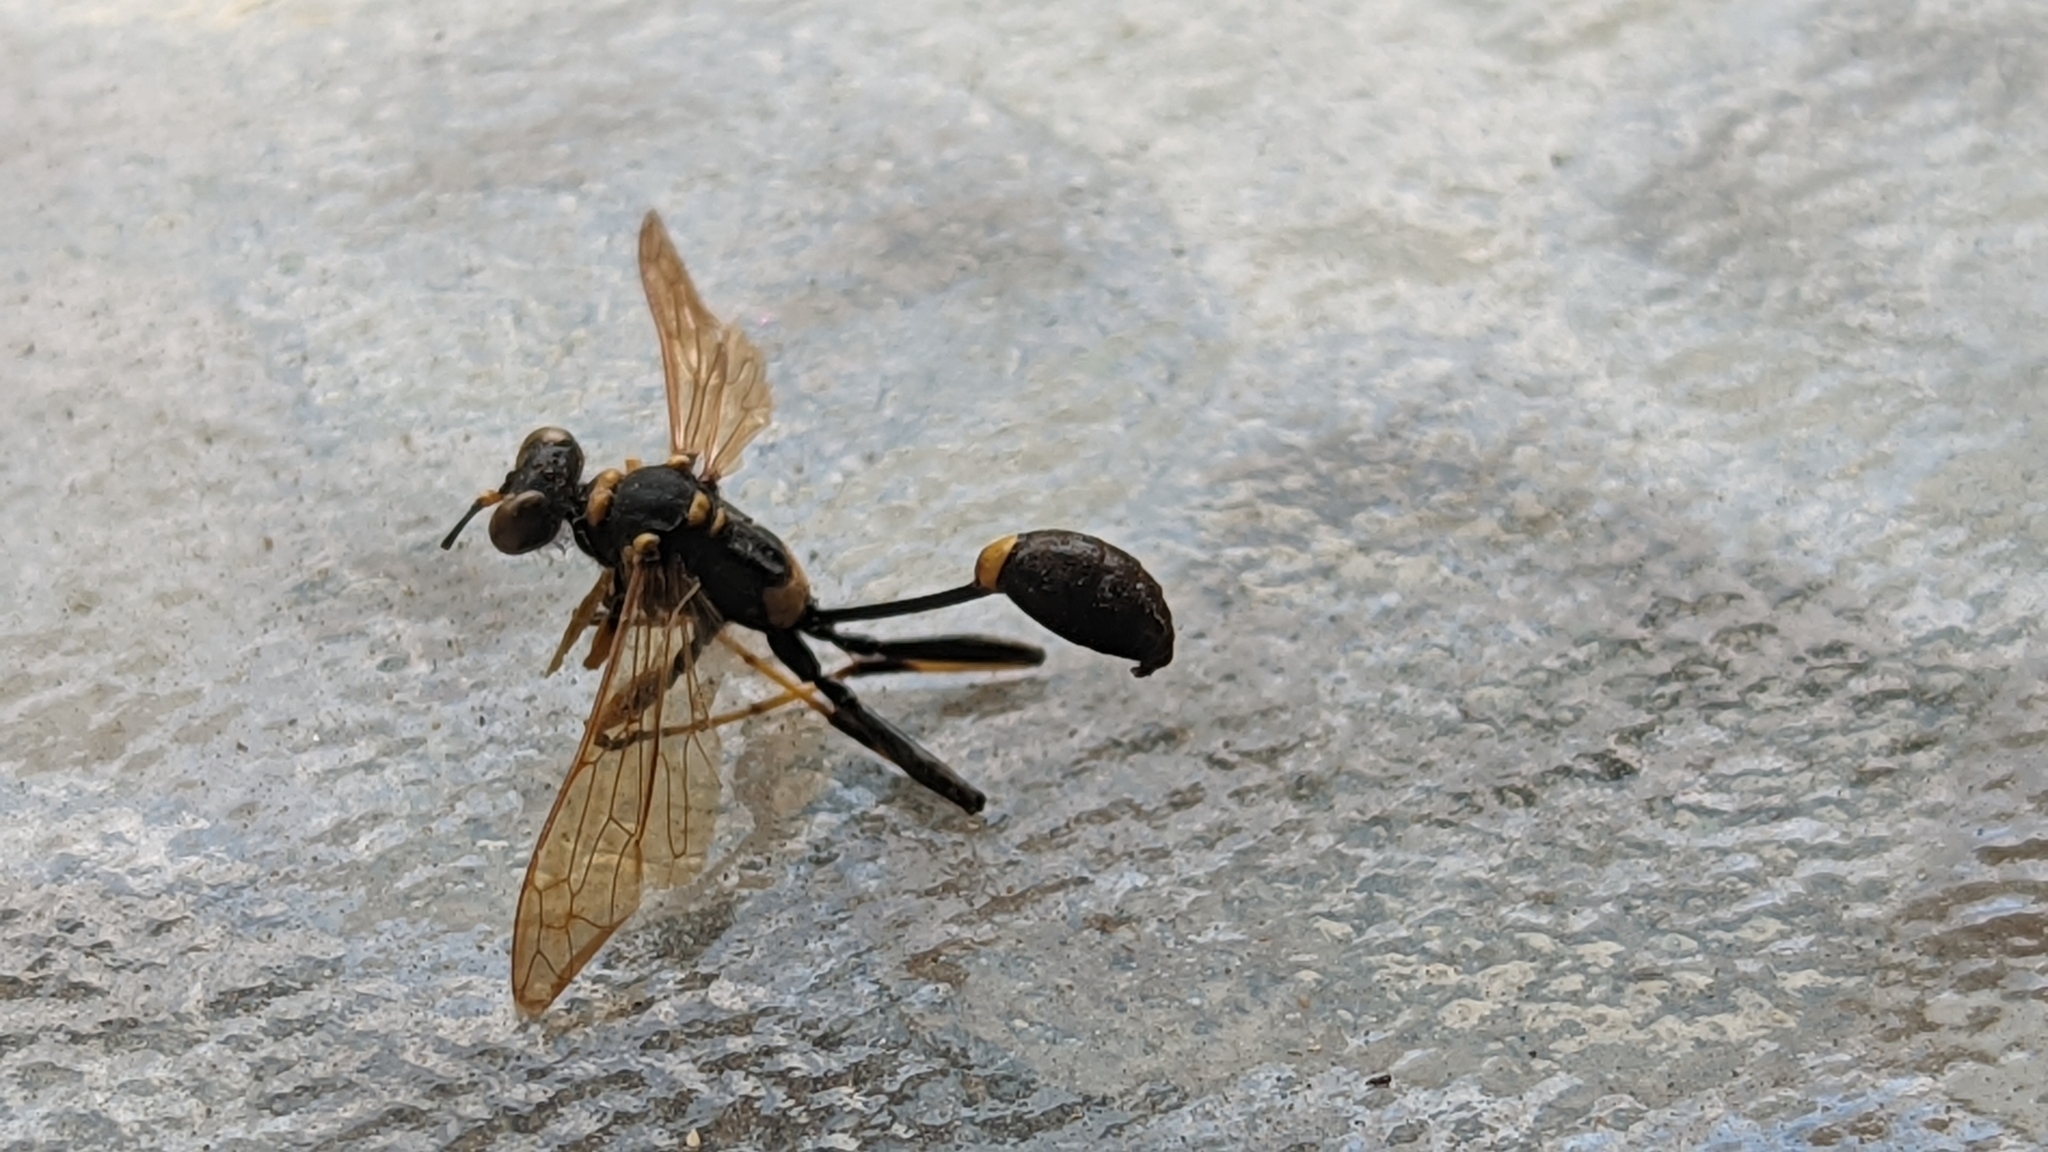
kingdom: Animalia
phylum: Arthropoda
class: Insecta
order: Hymenoptera
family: Sphecidae
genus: Sceliphron
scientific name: Sceliphron caementarium
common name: Mud dauber
